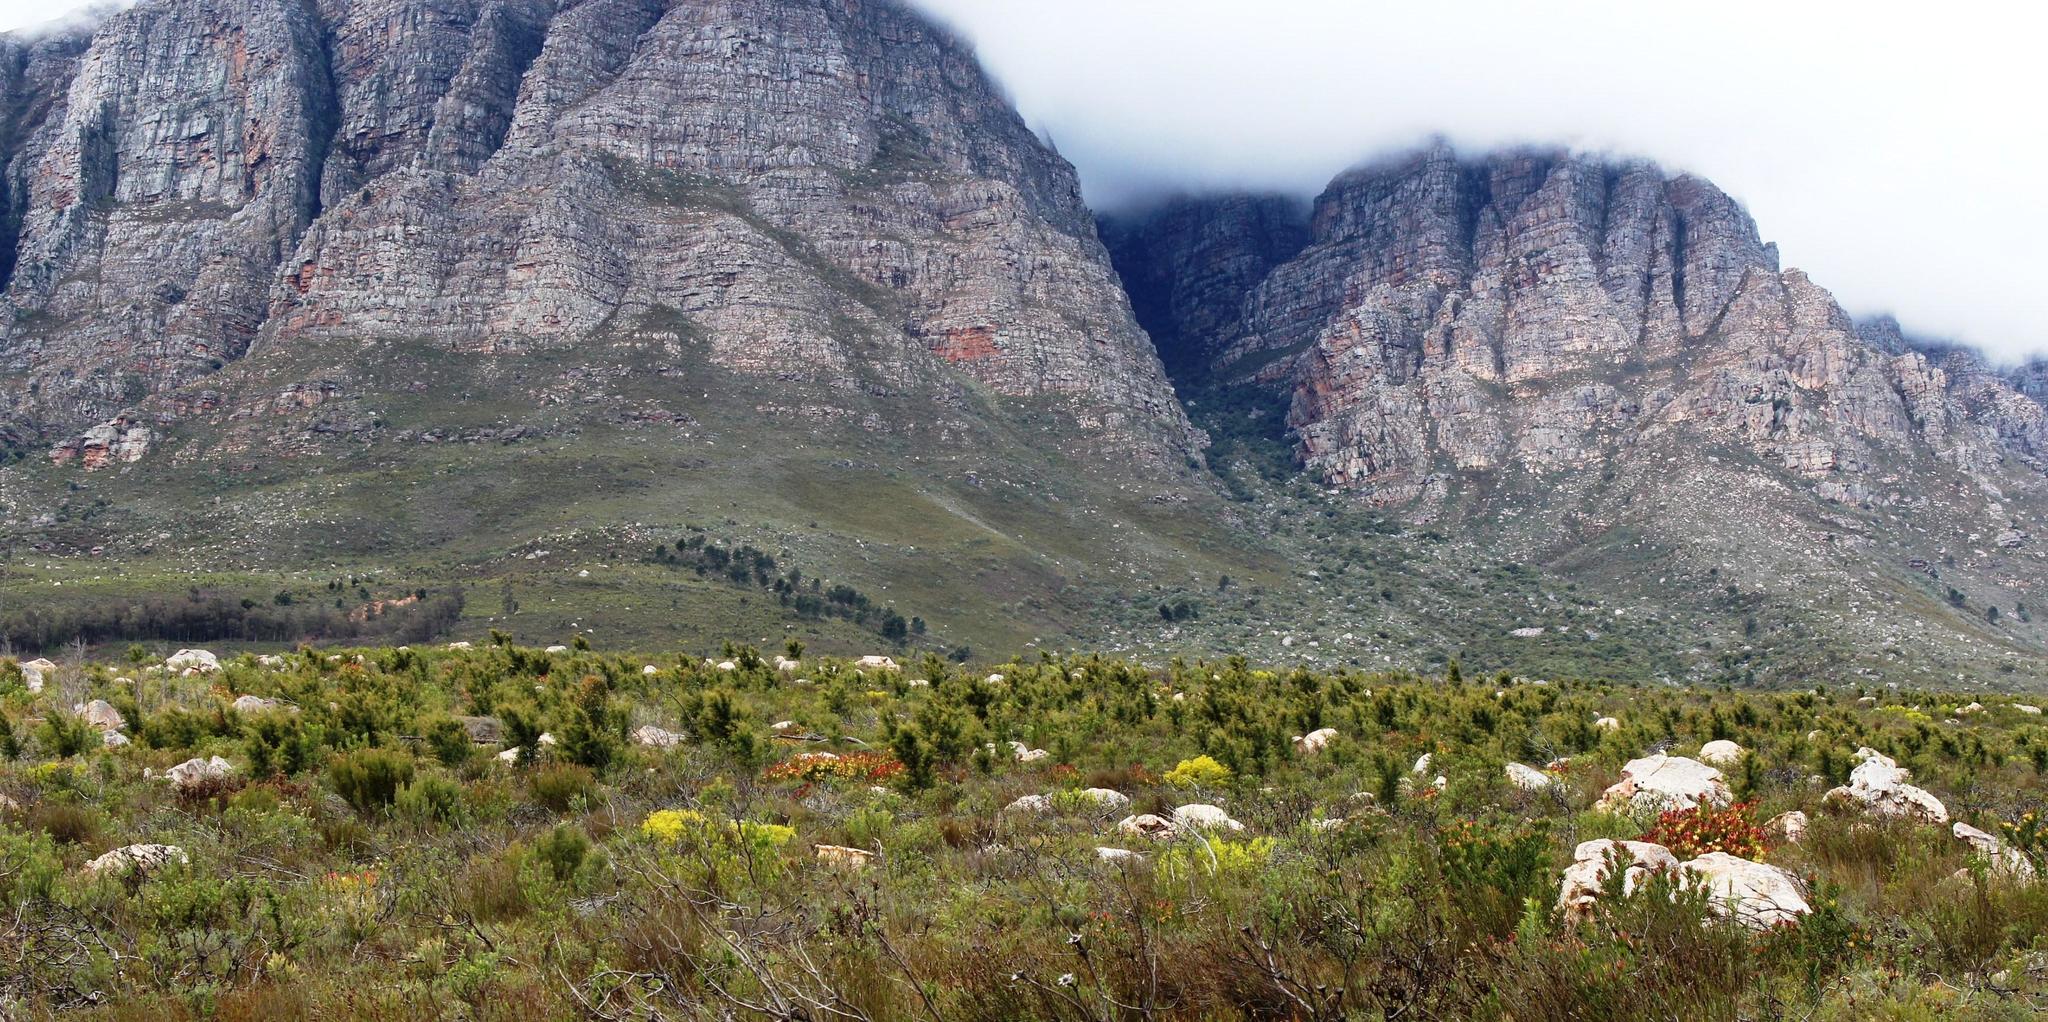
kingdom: Plantae
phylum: Tracheophyta
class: Magnoliopsida
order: Proteales
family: Proteaceae
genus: Hakea
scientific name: Hakea sericea
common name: Needle bush
